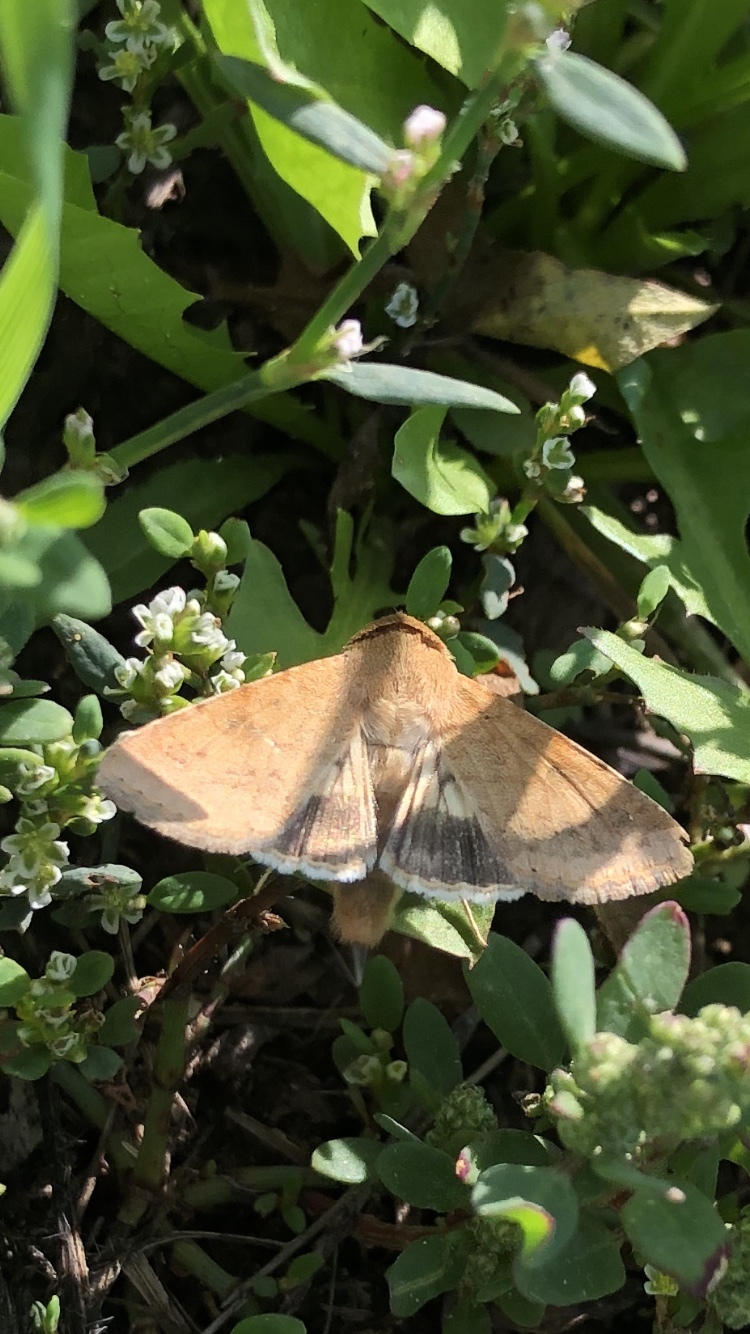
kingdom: Animalia
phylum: Arthropoda
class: Insecta
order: Lepidoptera
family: Noctuidae
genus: Helicoverpa
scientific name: Helicoverpa armigera
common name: Cotton bollworm
